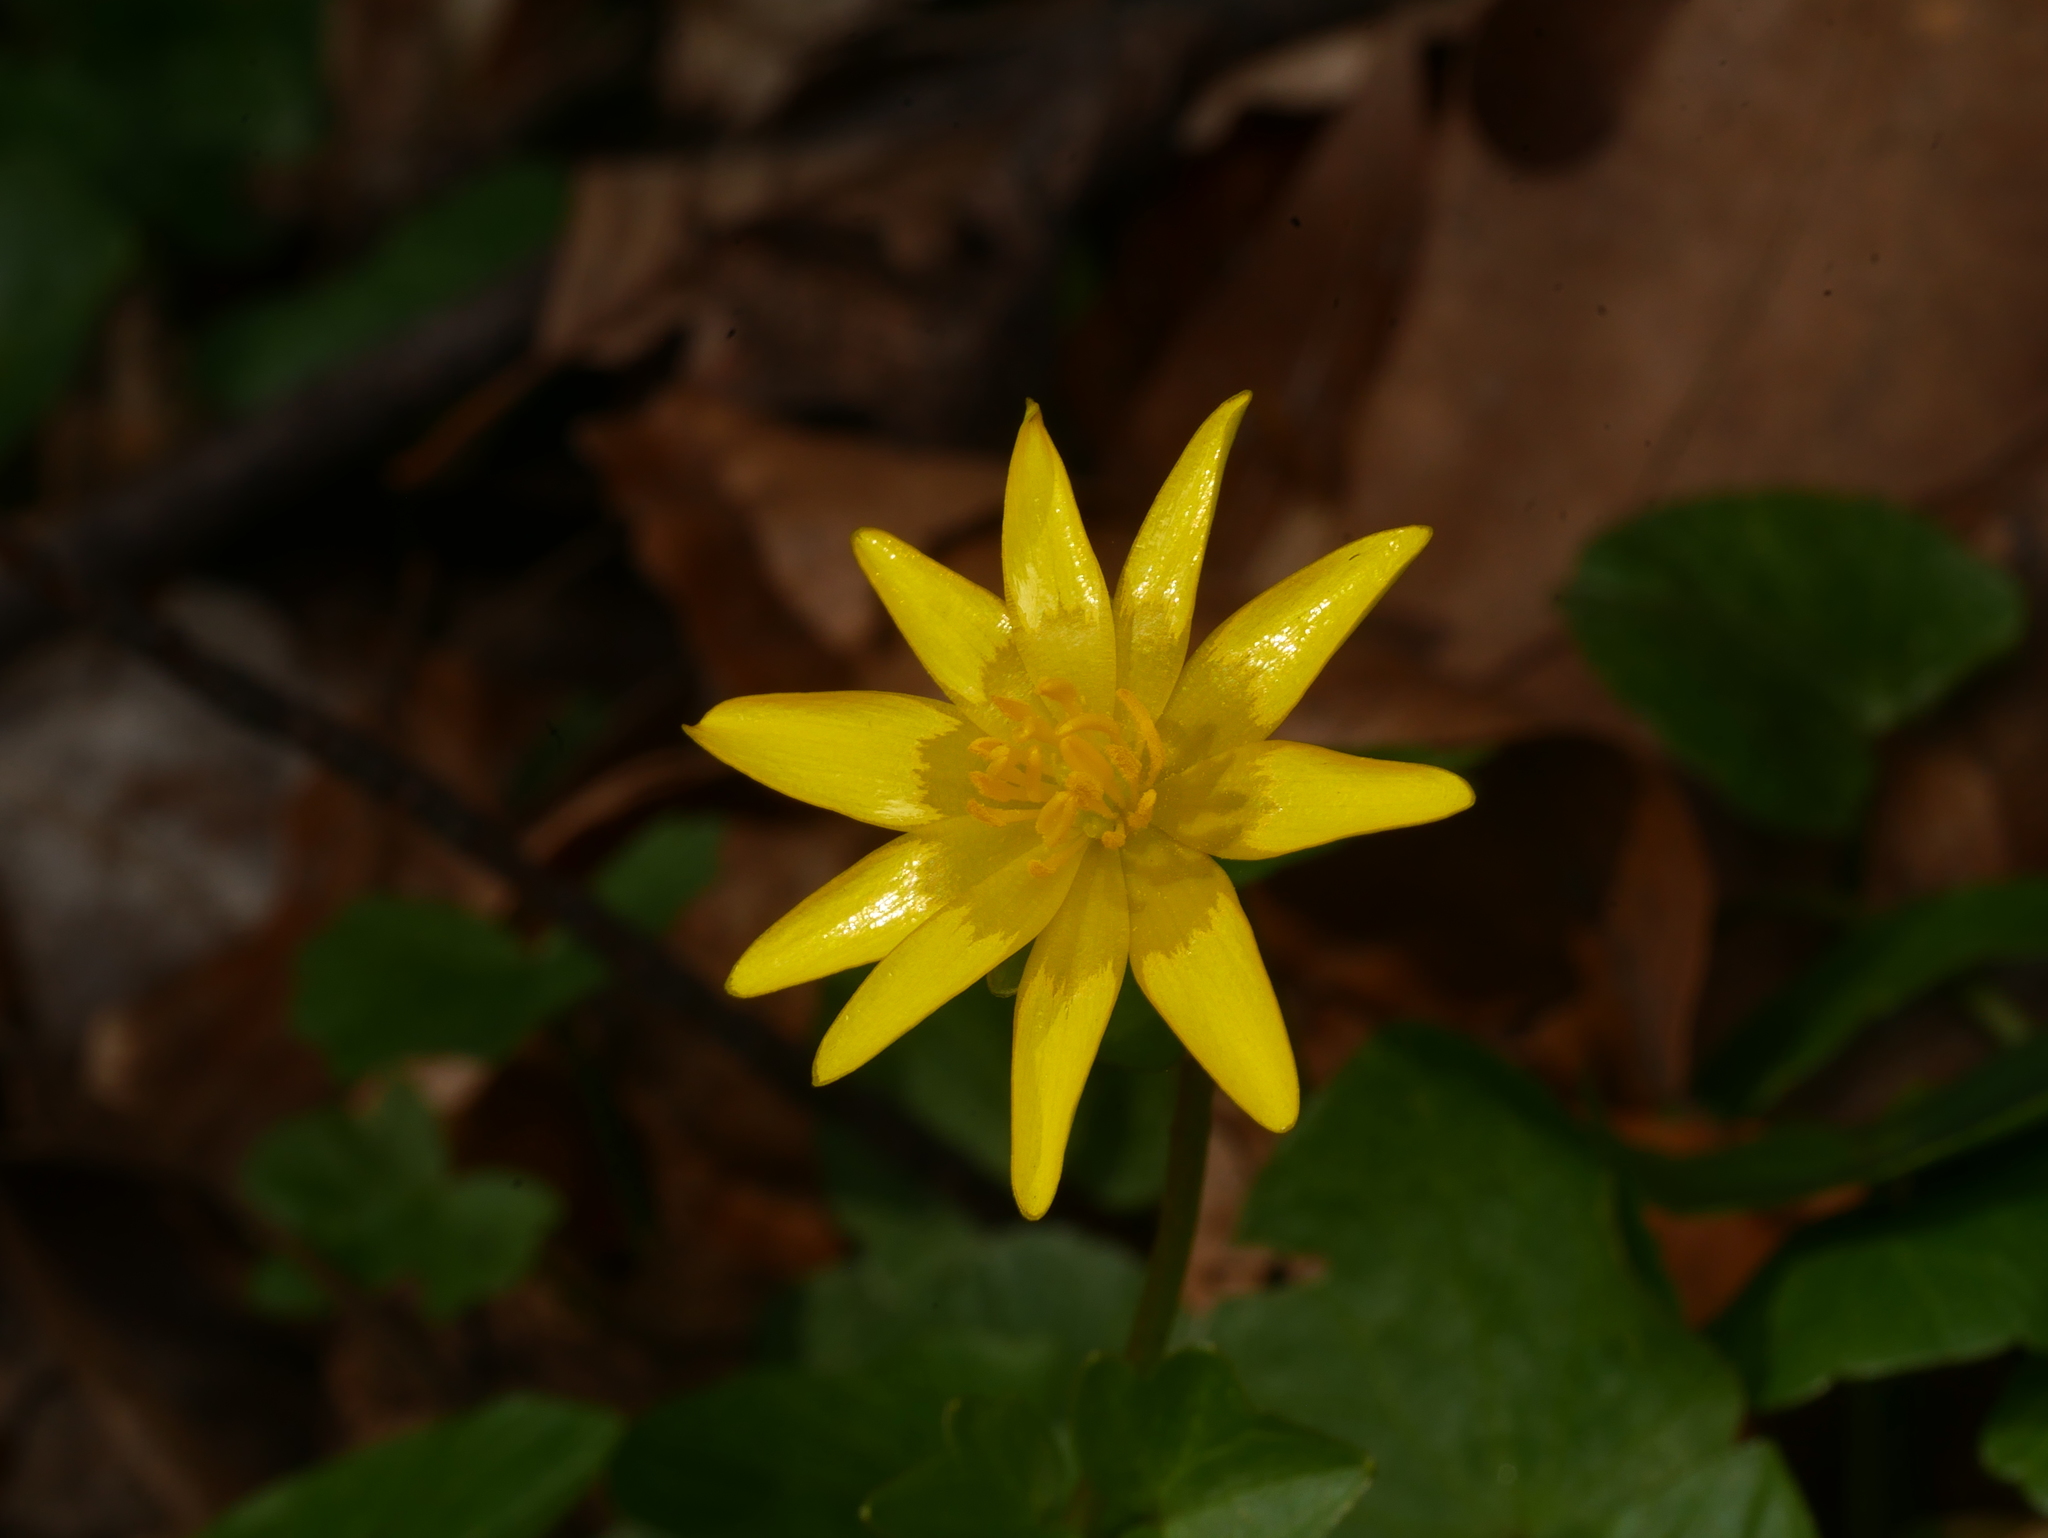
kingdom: Plantae
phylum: Tracheophyta
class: Magnoliopsida
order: Ranunculales
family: Ranunculaceae
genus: Ficaria
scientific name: Ficaria verna
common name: Lesser celandine
